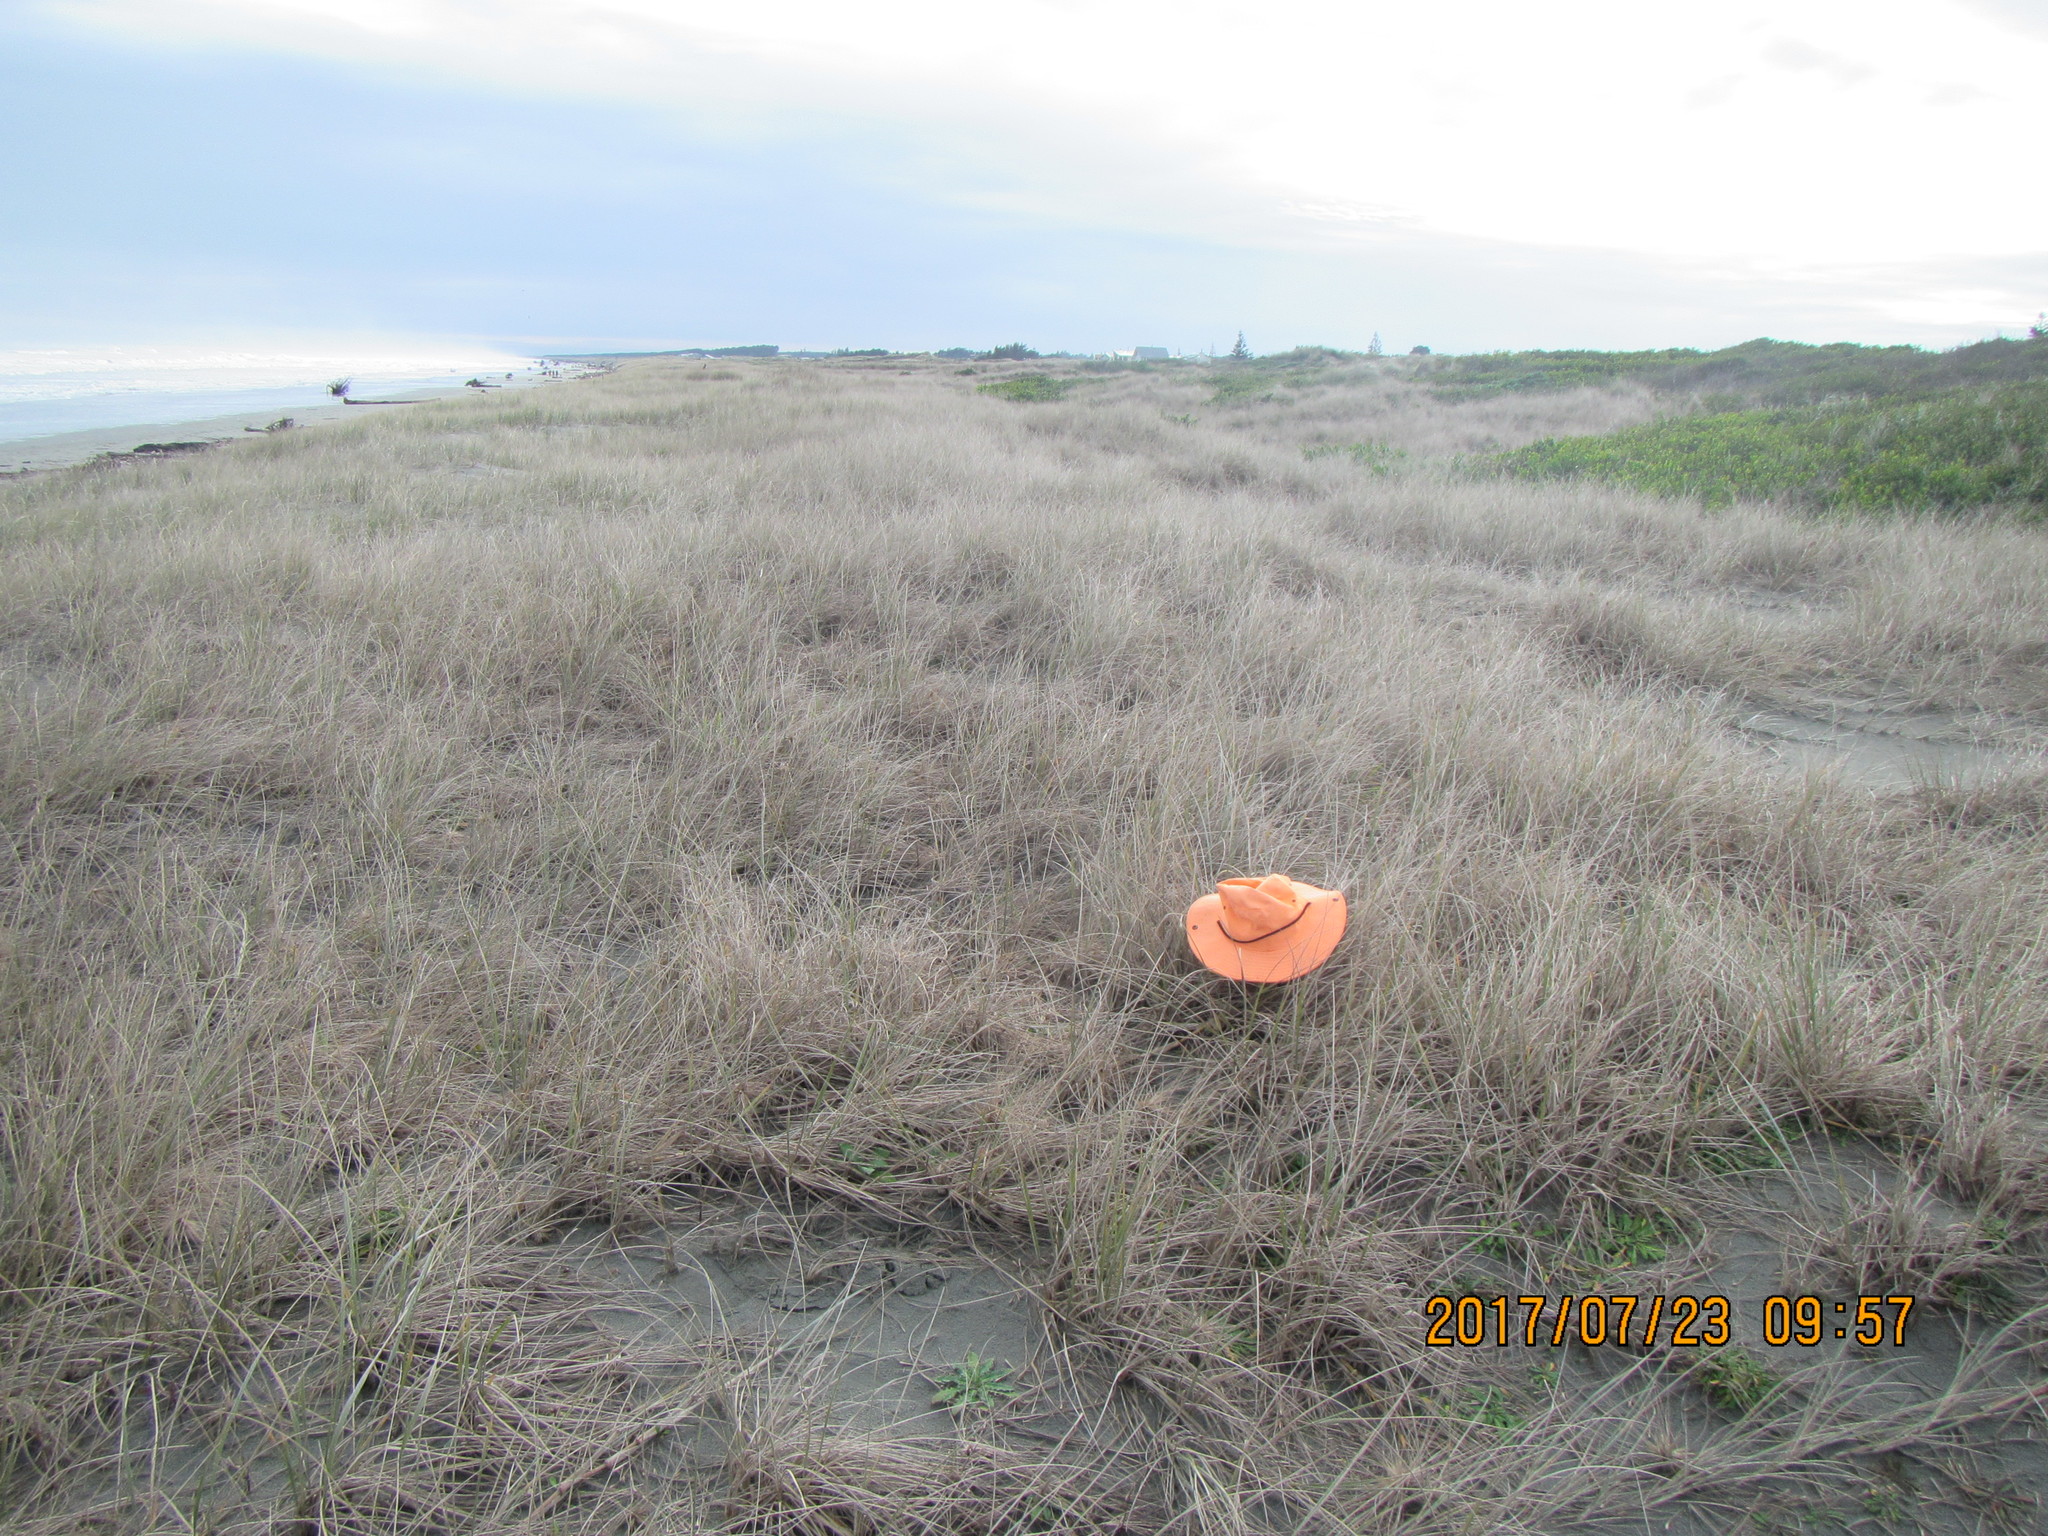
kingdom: Animalia
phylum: Arthropoda
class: Arachnida
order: Araneae
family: Dysderidae
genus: Dysdera
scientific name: Dysdera crocata
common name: Woodlouse spider
